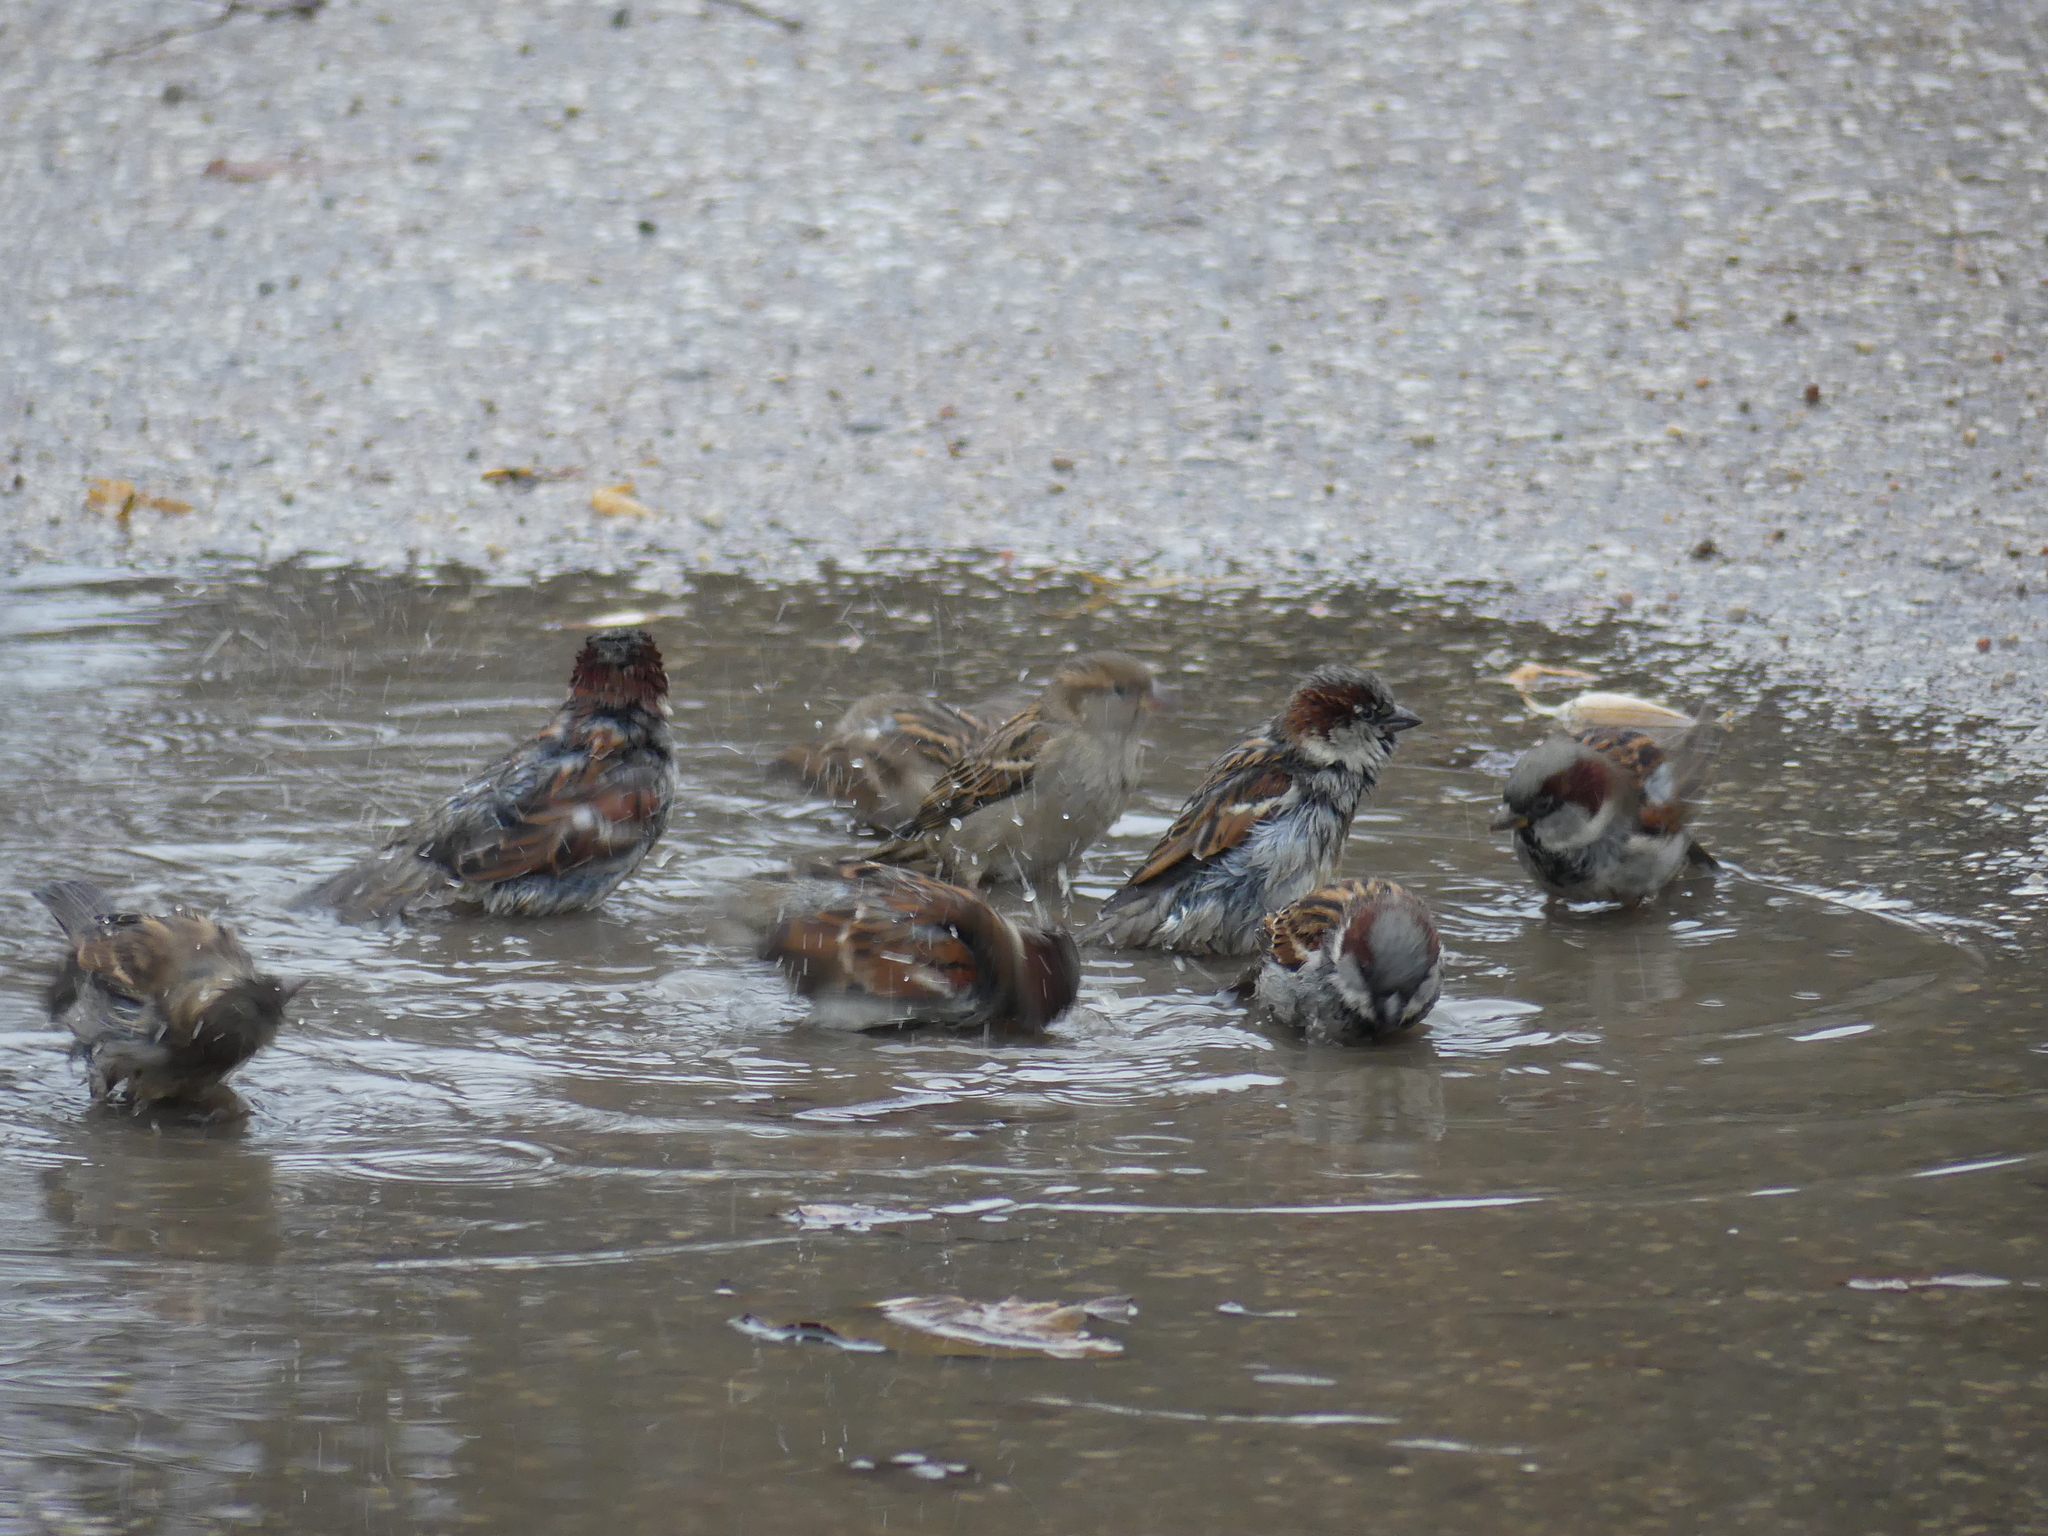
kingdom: Animalia
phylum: Chordata
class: Aves
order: Passeriformes
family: Passeridae
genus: Passer
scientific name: Passer domesticus
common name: House sparrow
